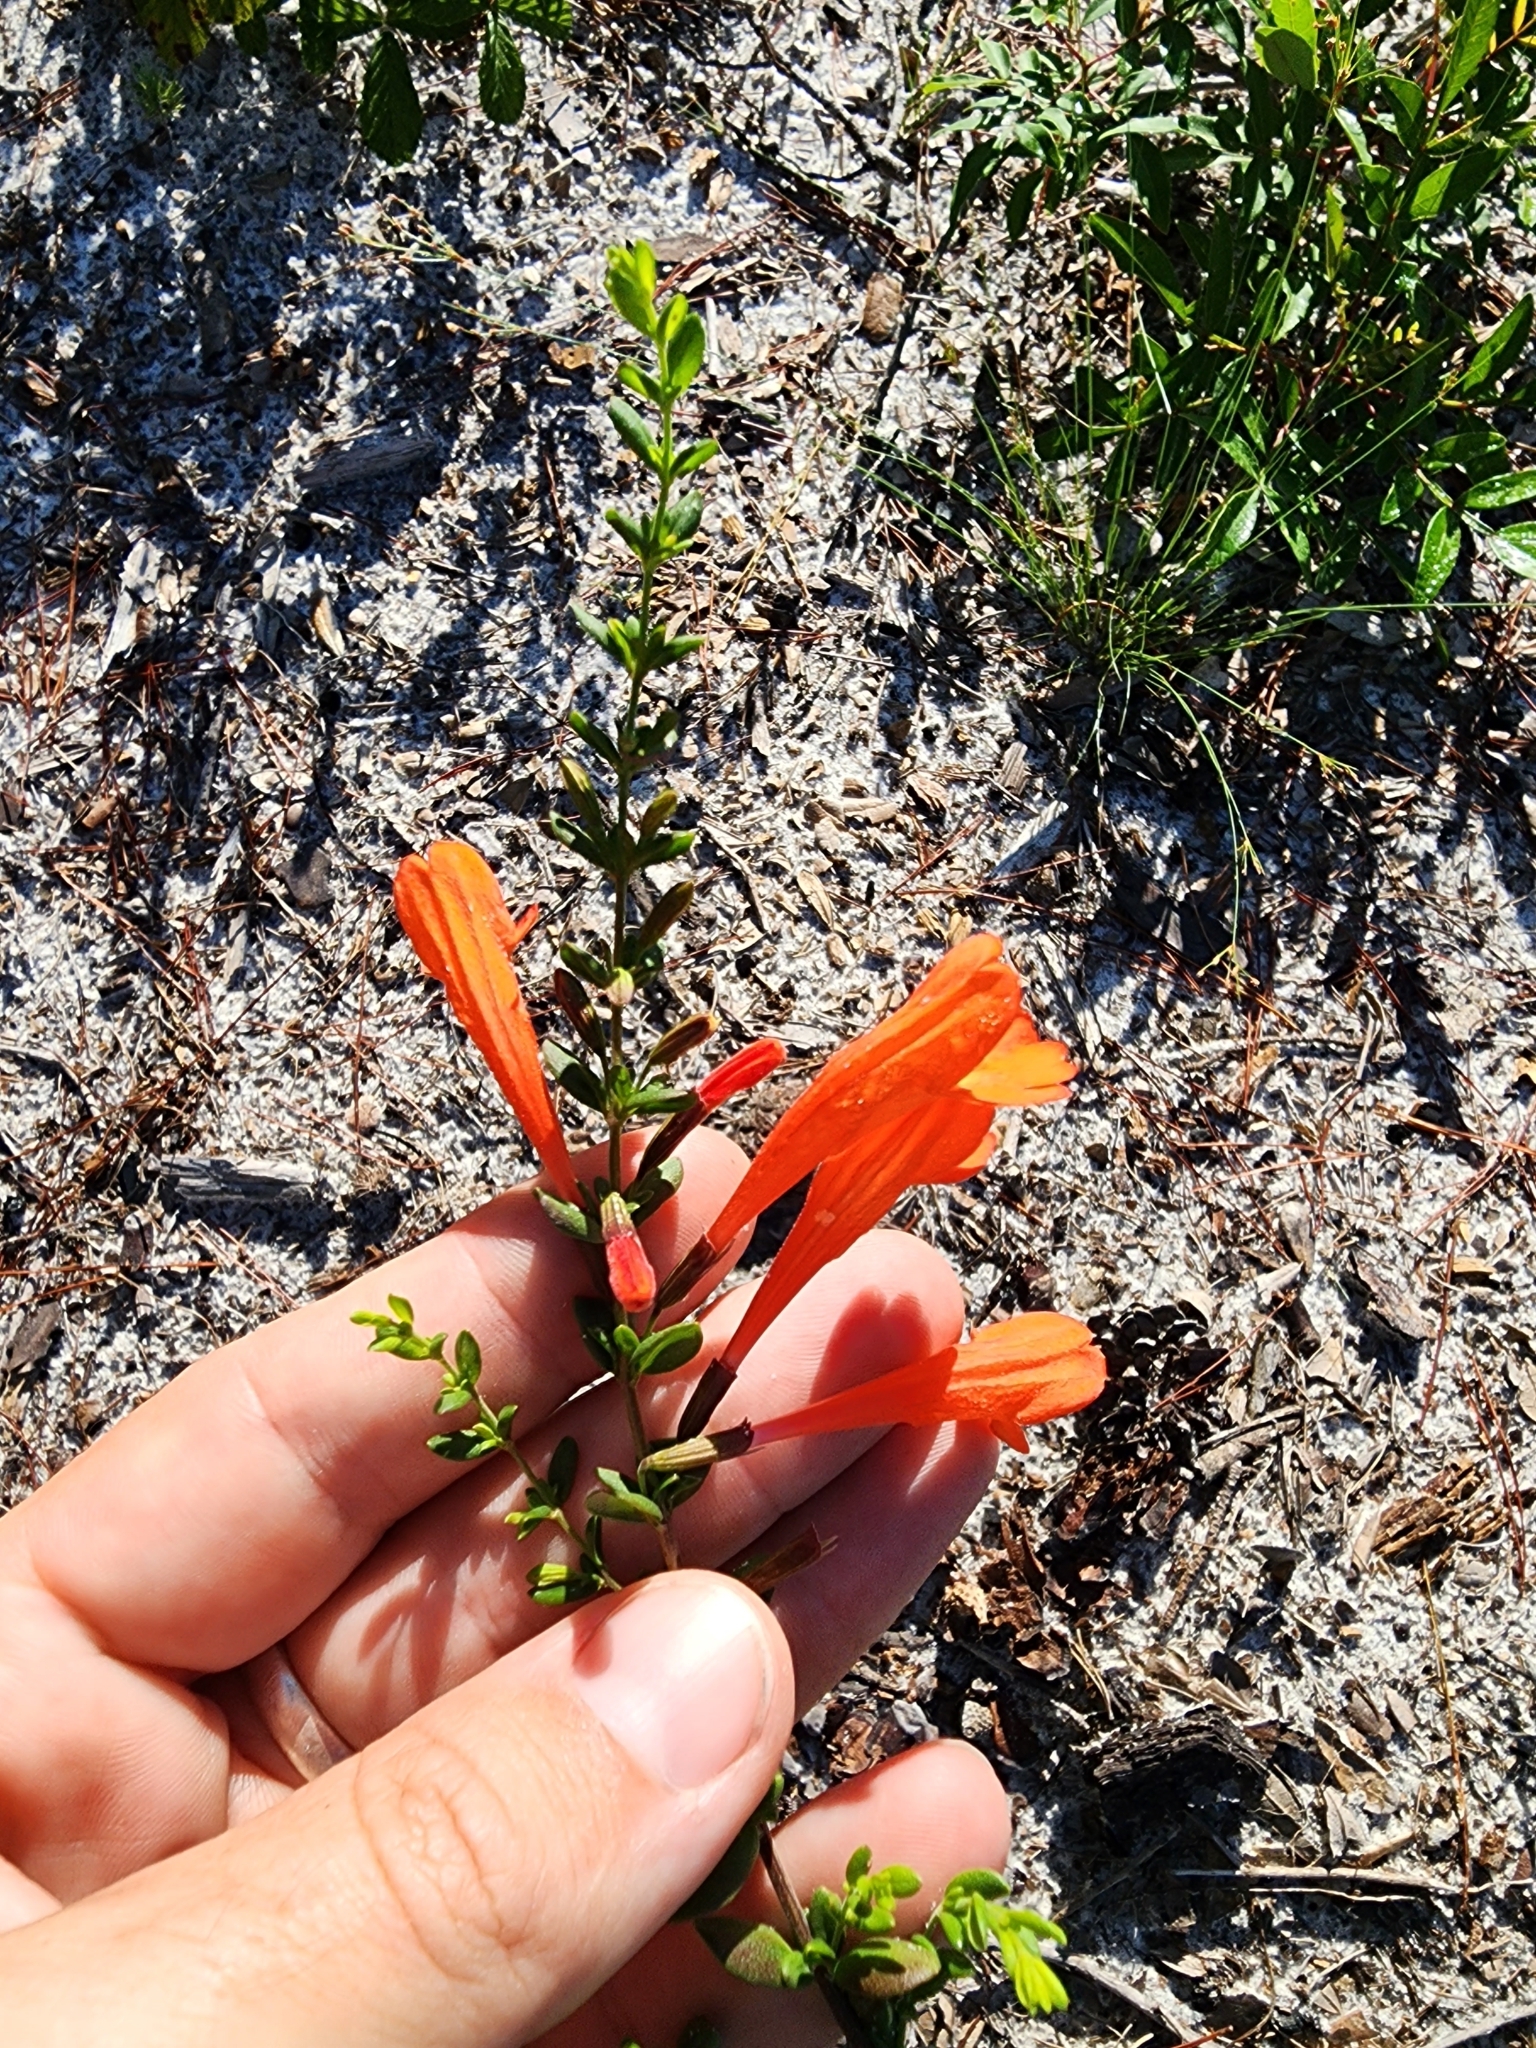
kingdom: Plantae
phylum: Tracheophyta
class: Magnoliopsida
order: Lamiales
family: Lamiaceae
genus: Clinopodium
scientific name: Clinopodium coccineum
